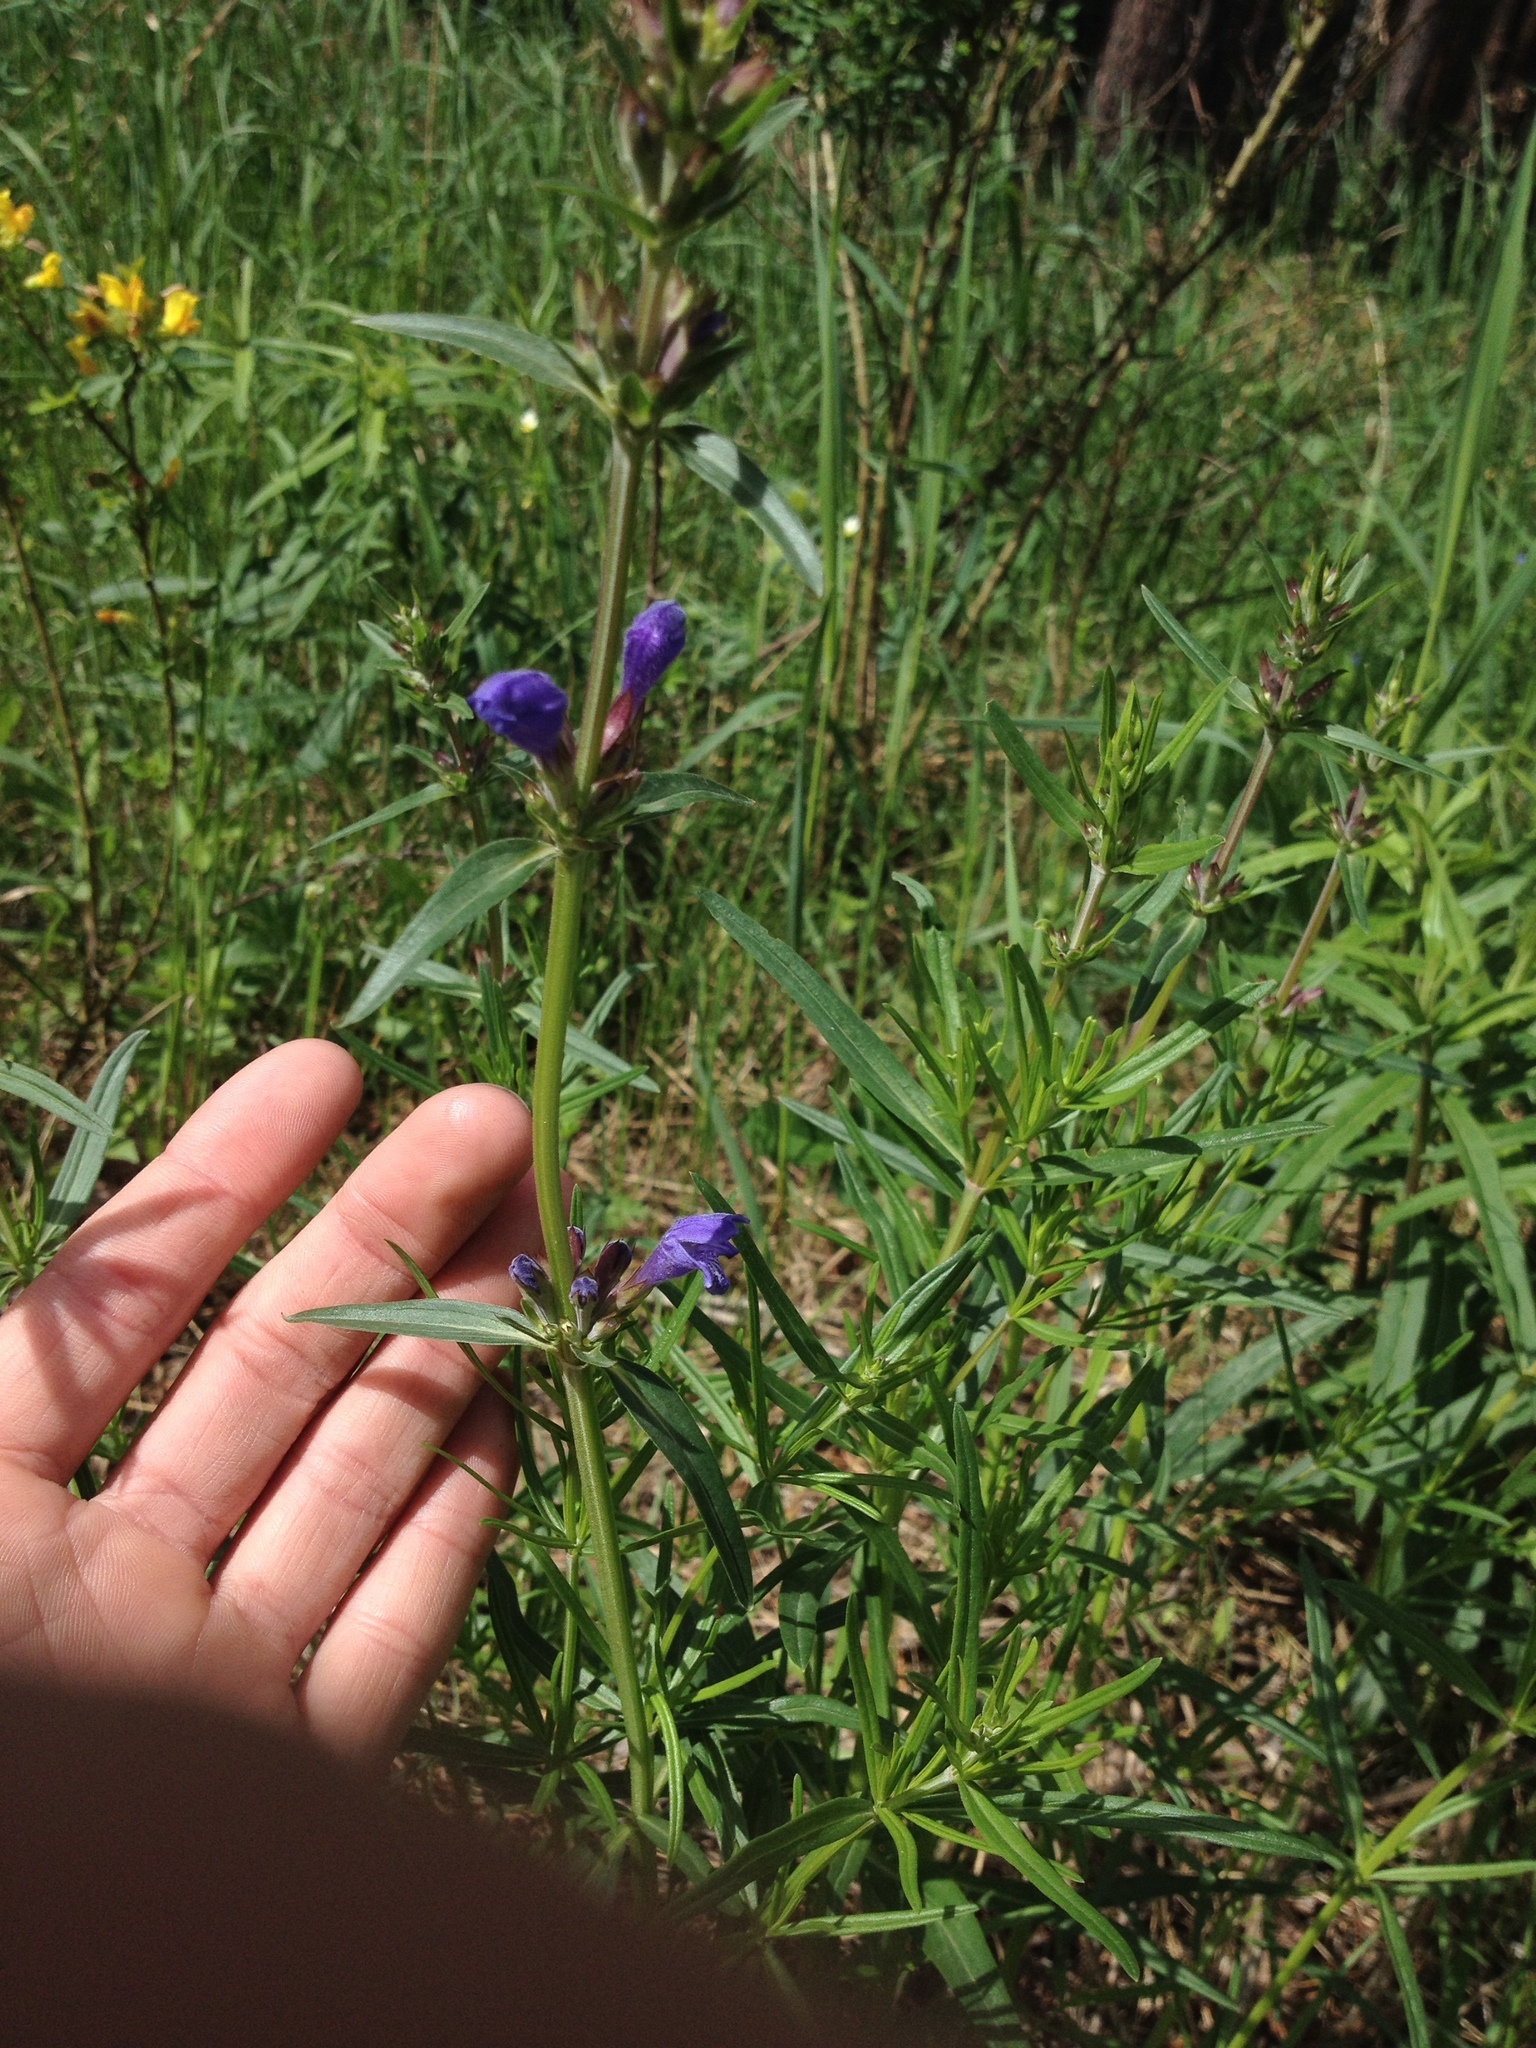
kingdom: Plantae
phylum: Tracheophyta
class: Magnoliopsida
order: Lamiales
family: Lamiaceae
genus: Dracocephalum
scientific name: Dracocephalum ruyschiana
